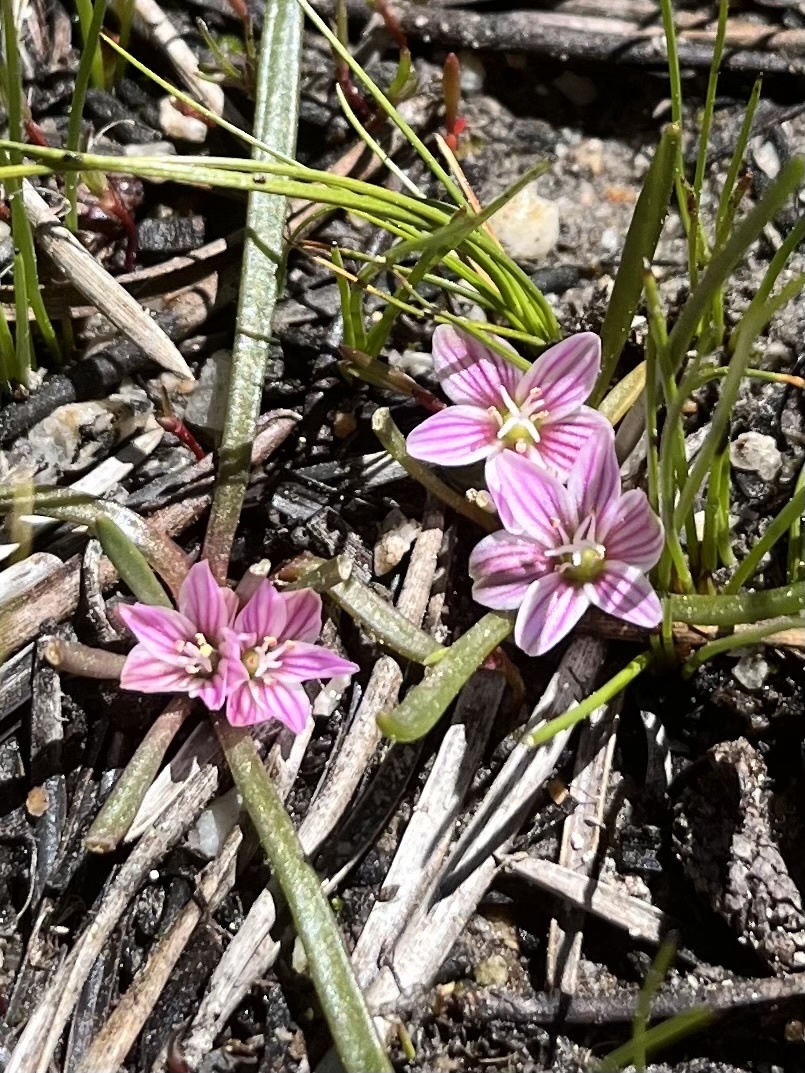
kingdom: Plantae
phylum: Tracheophyta
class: Magnoliopsida
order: Caryophyllales
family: Montiaceae
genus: Lewisia
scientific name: Lewisia pygmaea
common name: Alpine bitterroot
